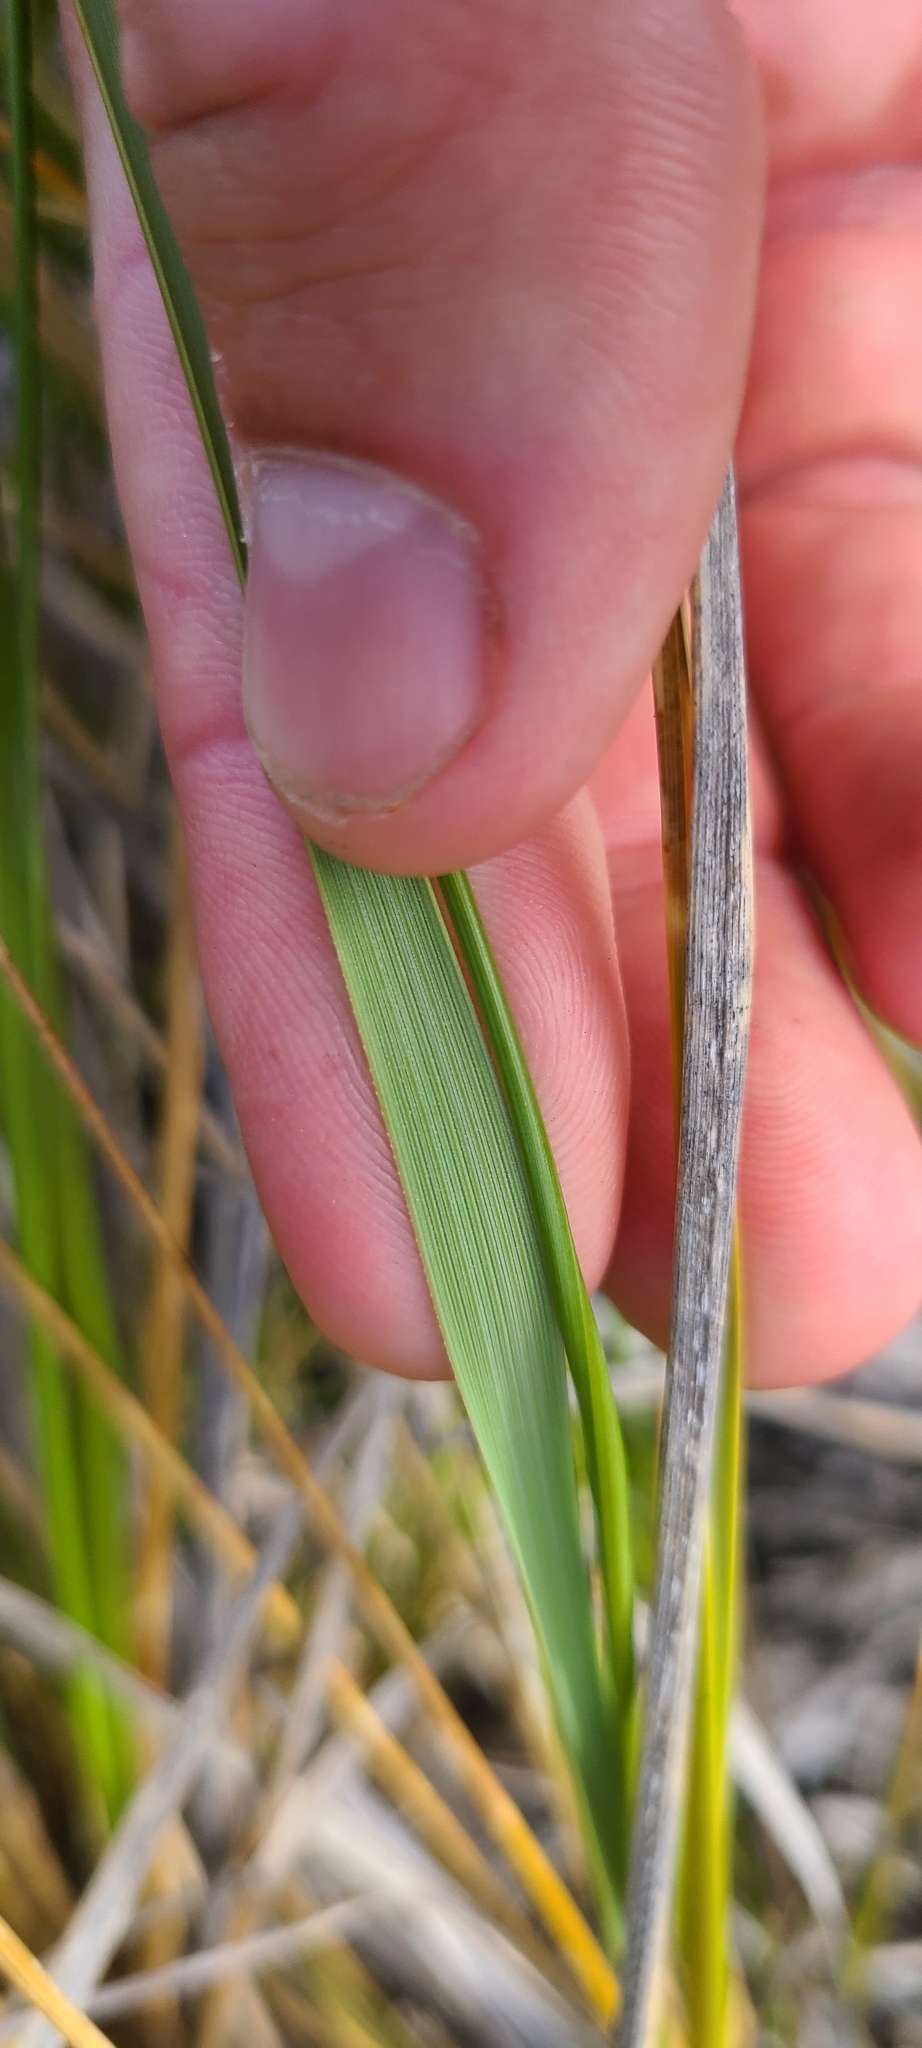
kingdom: Plantae
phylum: Tracheophyta
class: Liliopsida
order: Poales
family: Poaceae
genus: Chionochloa
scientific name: Chionochloa macra
